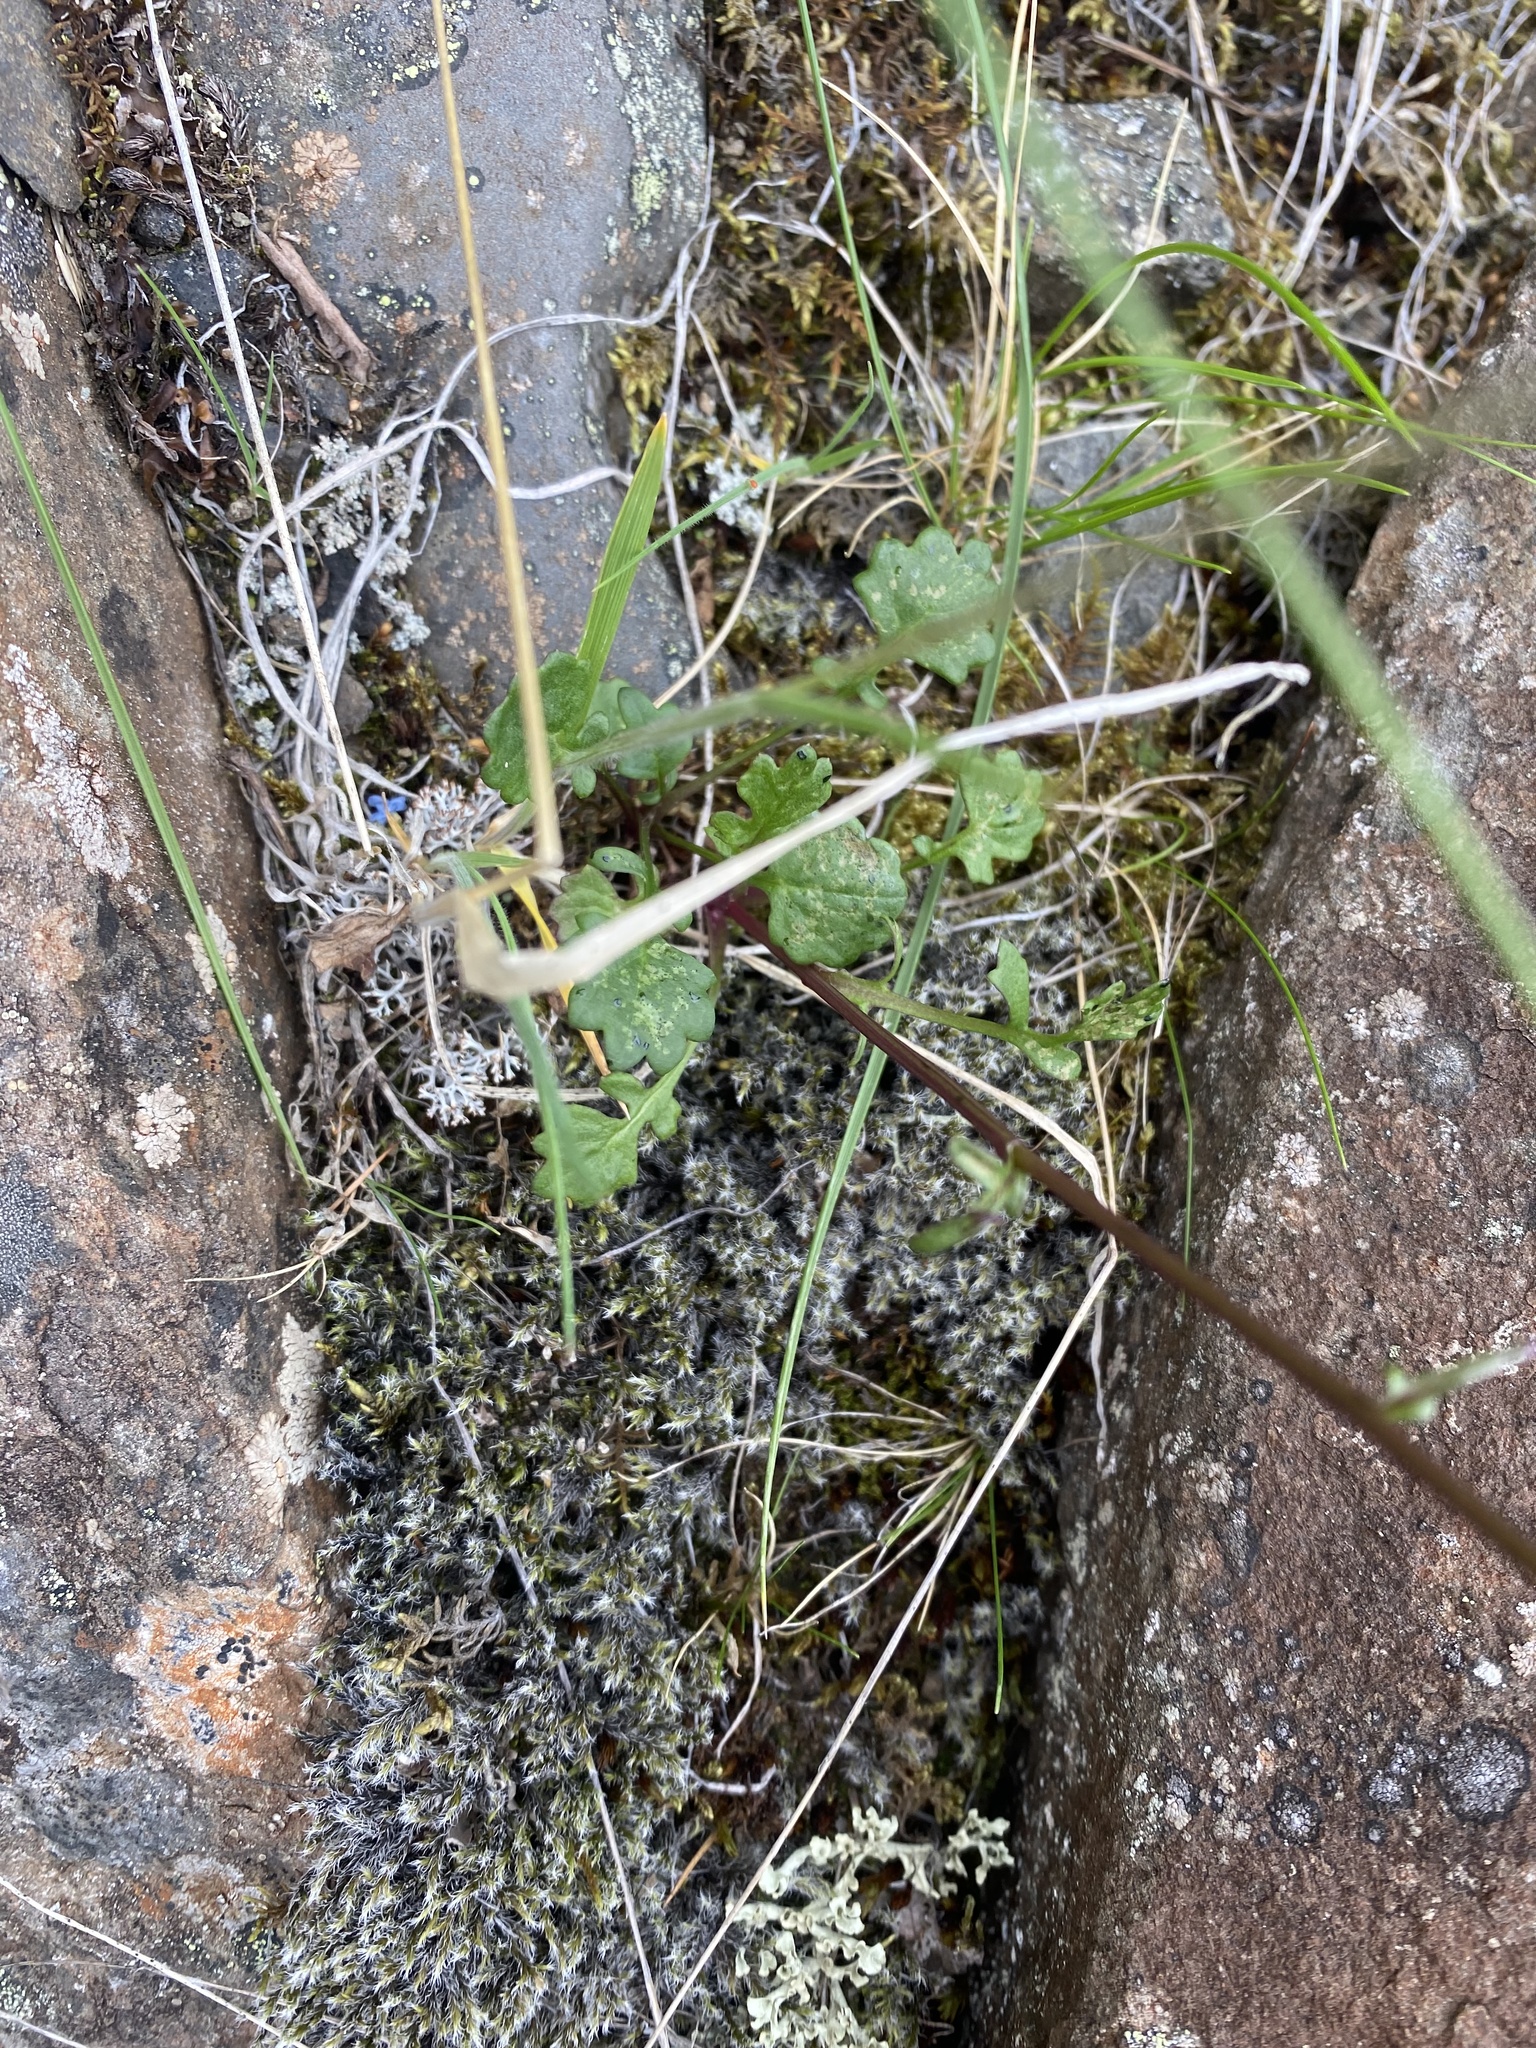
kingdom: Plantae
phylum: Tracheophyta
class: Magnoliopsida
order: Asterales
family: Asteraceae
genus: Packera
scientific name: Packera heterophylla
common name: Arctic butterweed
